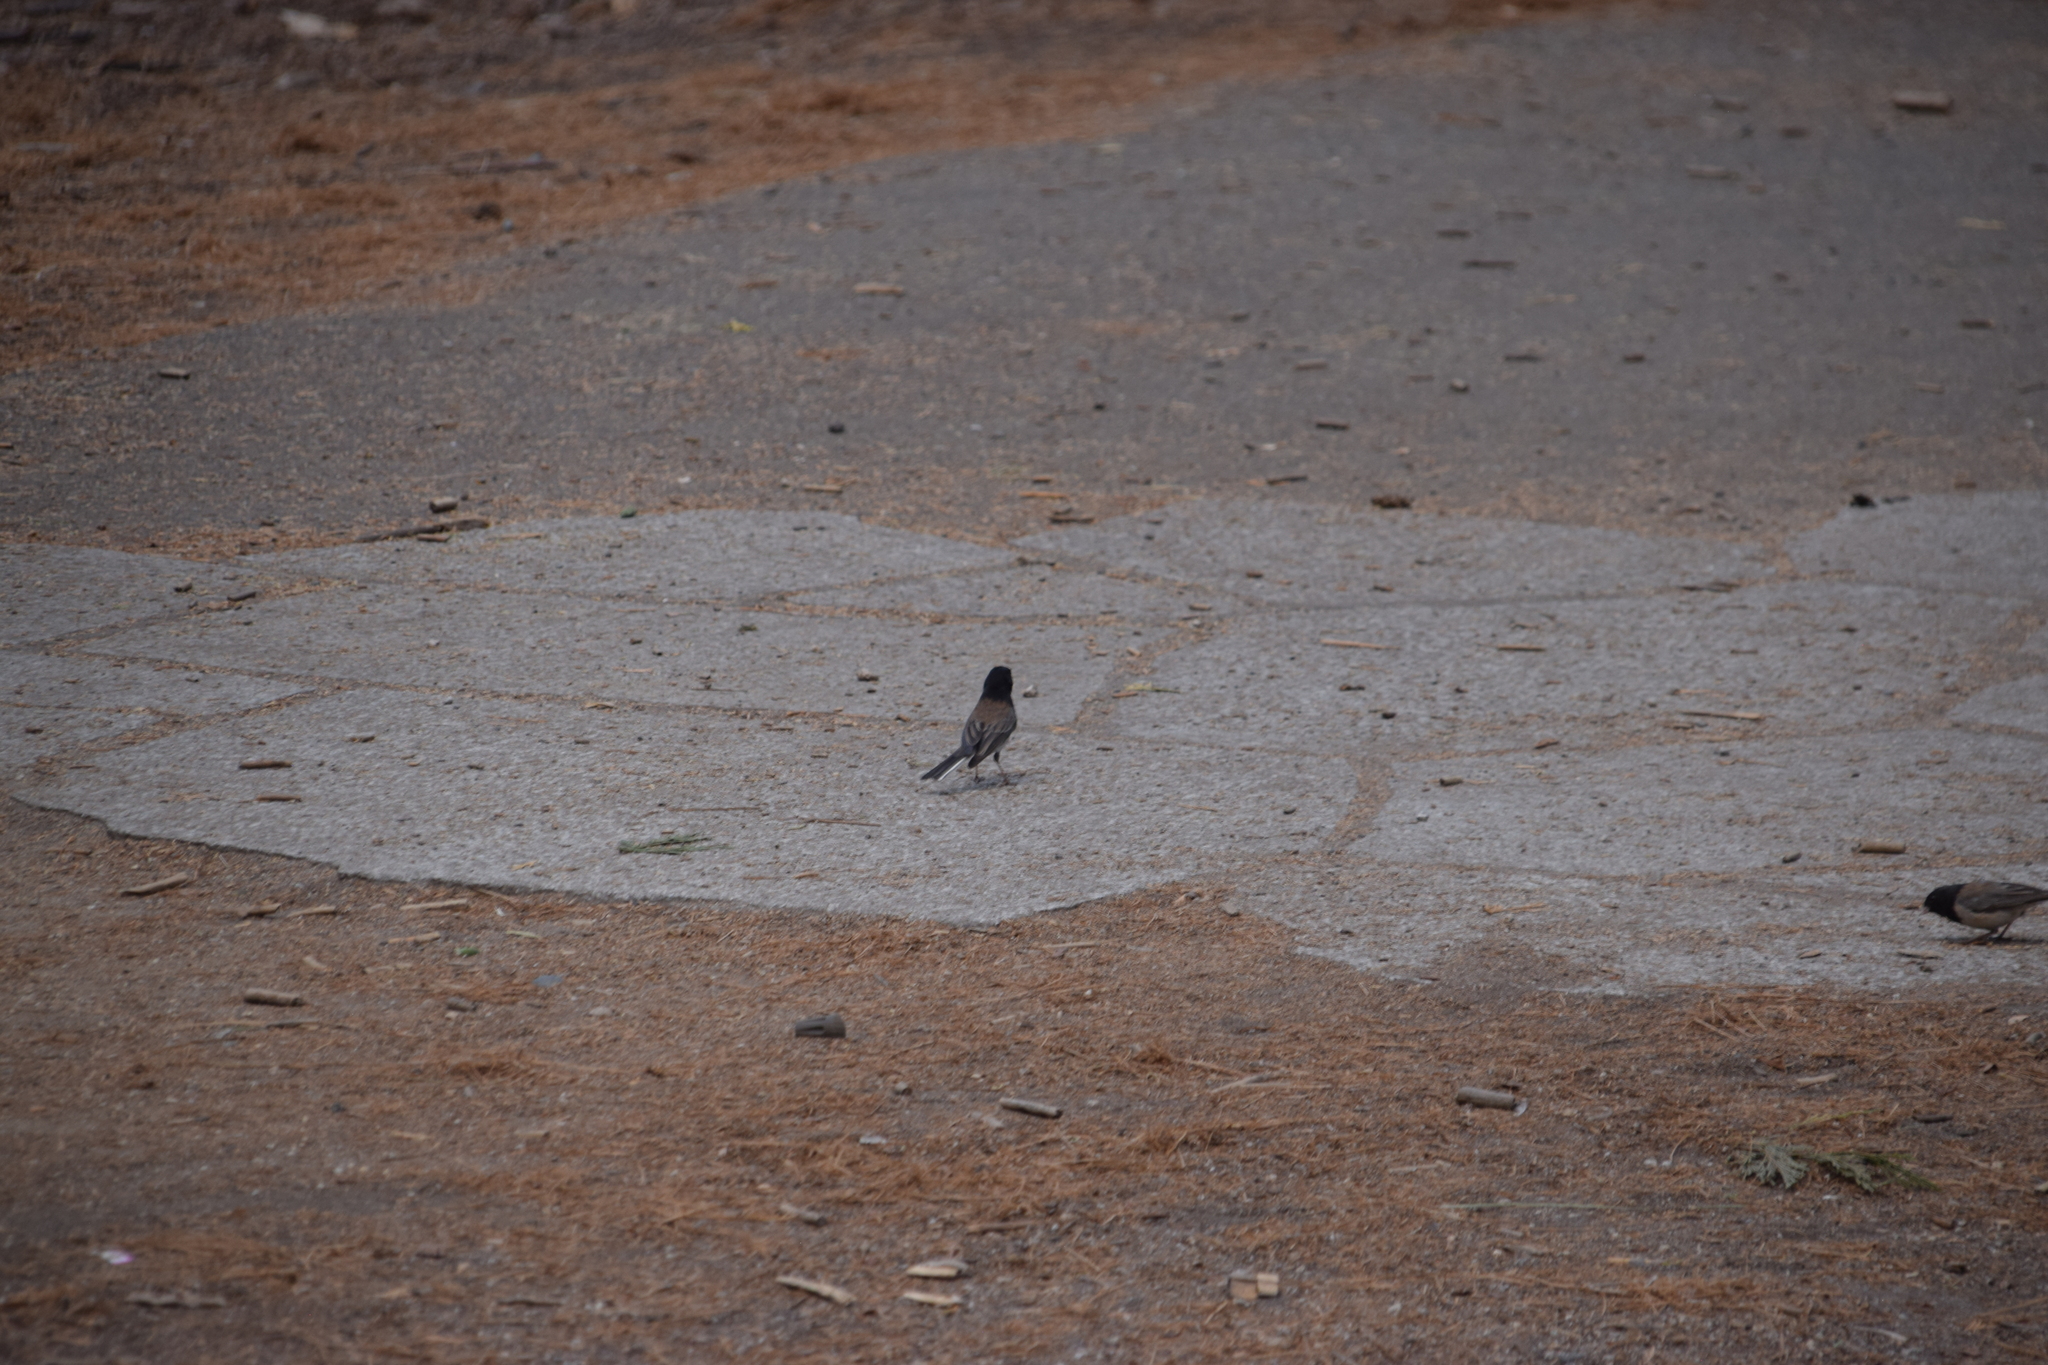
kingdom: Animalia
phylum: Chordata
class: Aves
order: Passeriformes
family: Passerellidae
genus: Junco
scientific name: Junco hyemalis
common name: Dark-eyed junco
